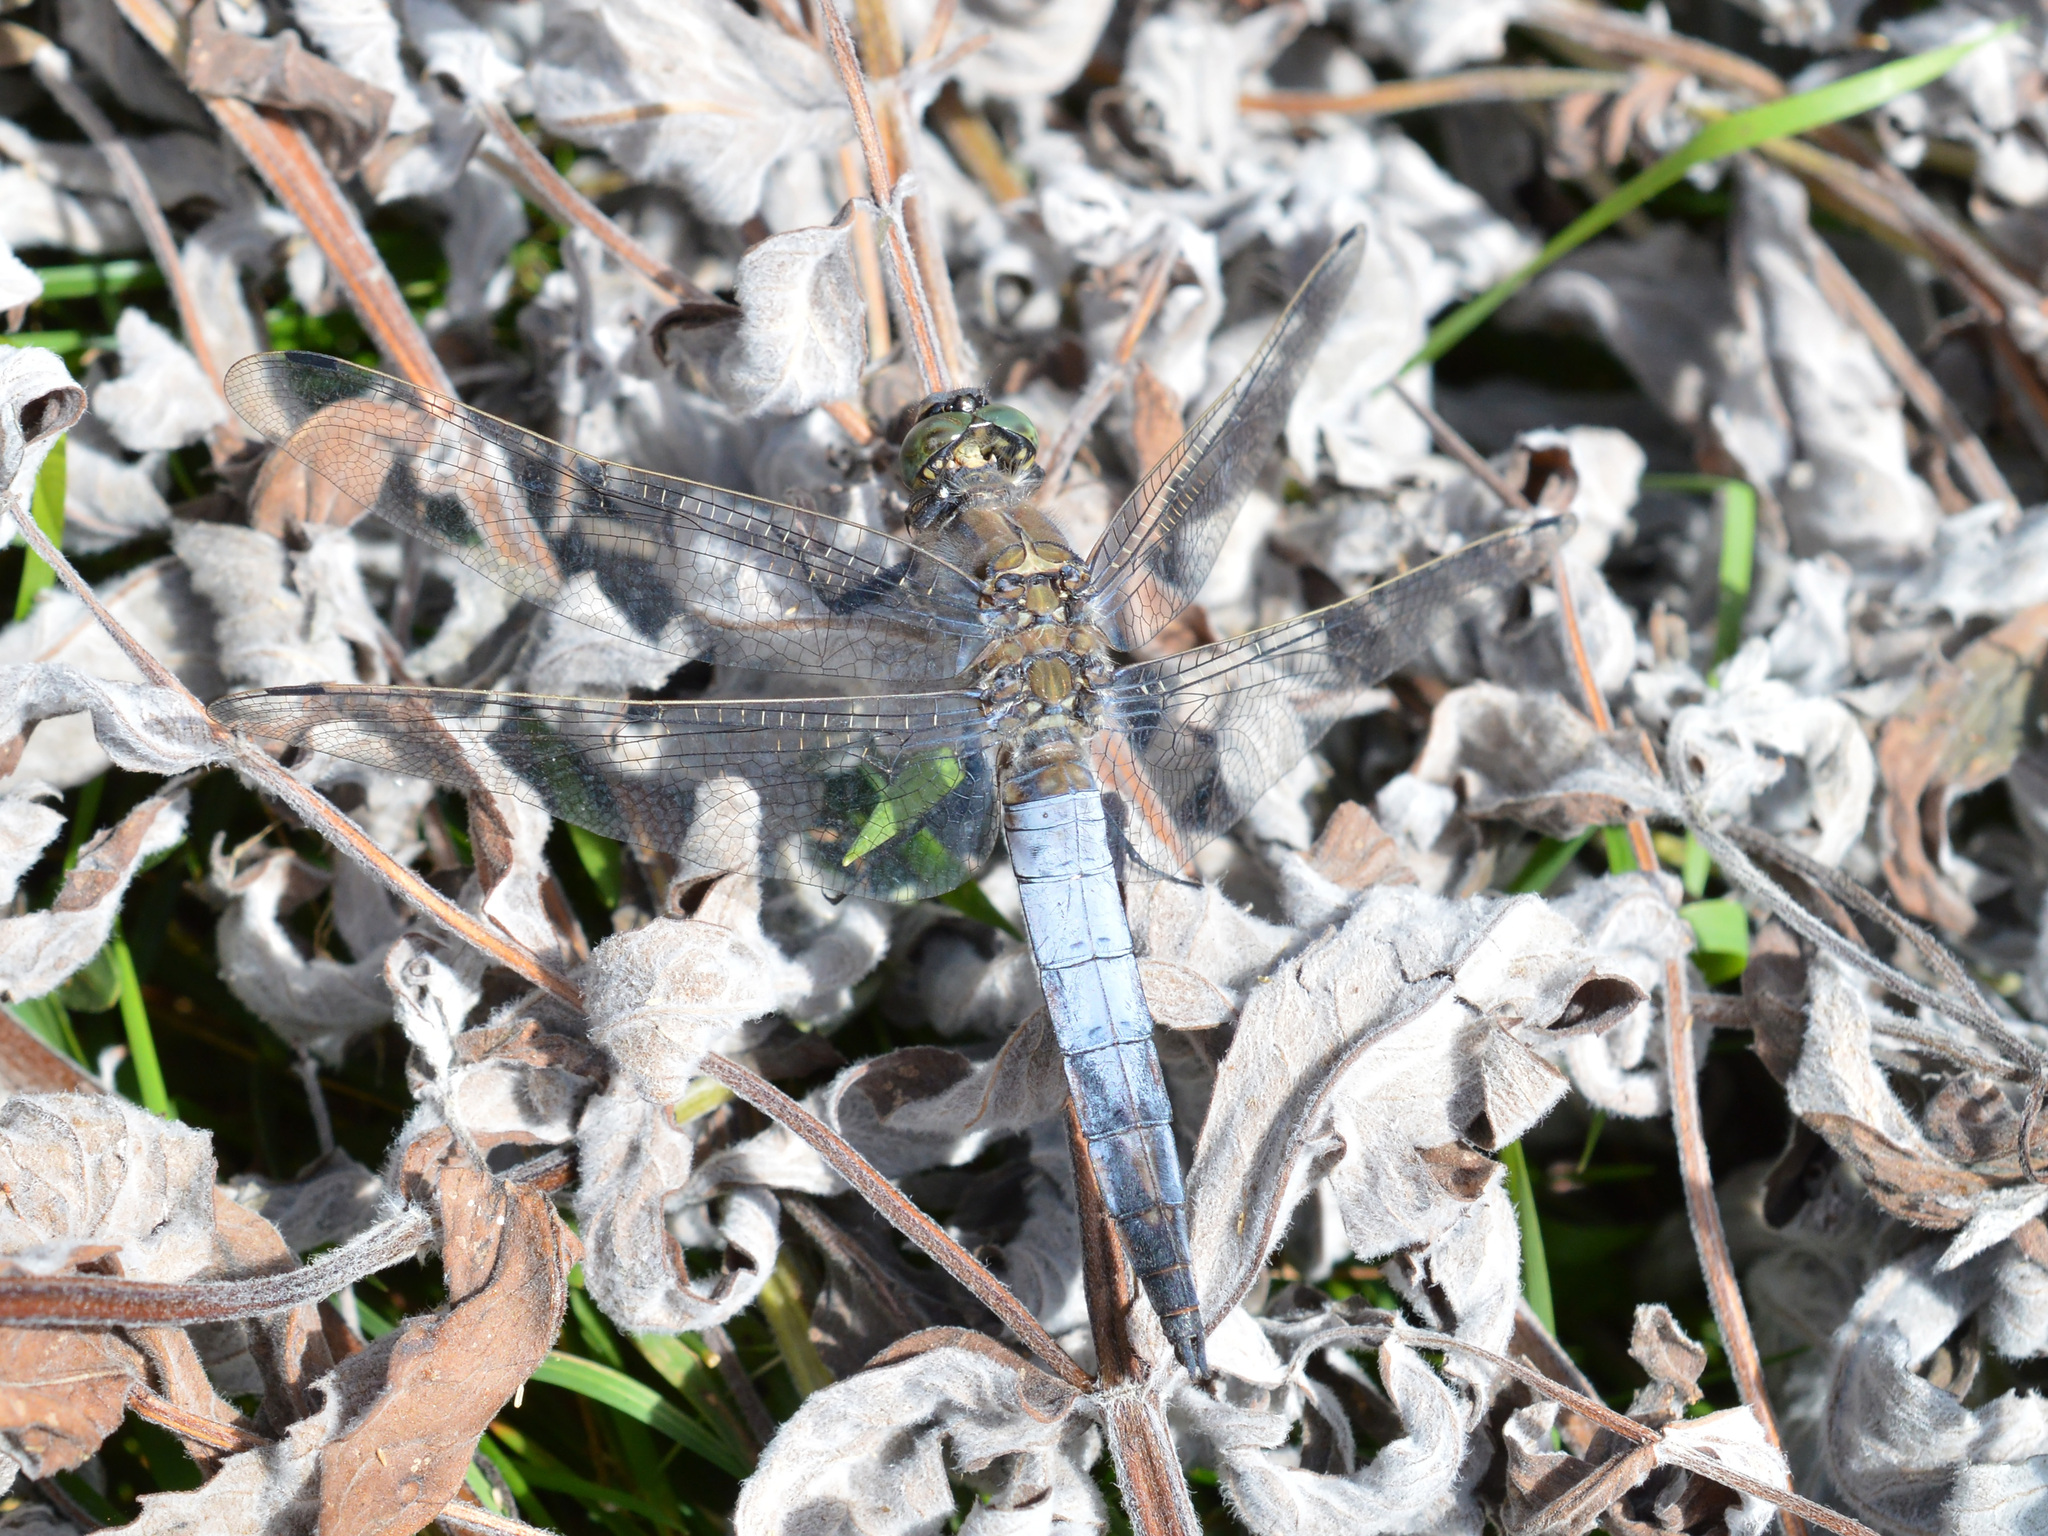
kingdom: Animalia
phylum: Arthropoda
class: Insecta
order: Odonata
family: Libellulidae
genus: Orthetrum
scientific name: Orthetrum cancellatum
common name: Black-tailed skimmer
